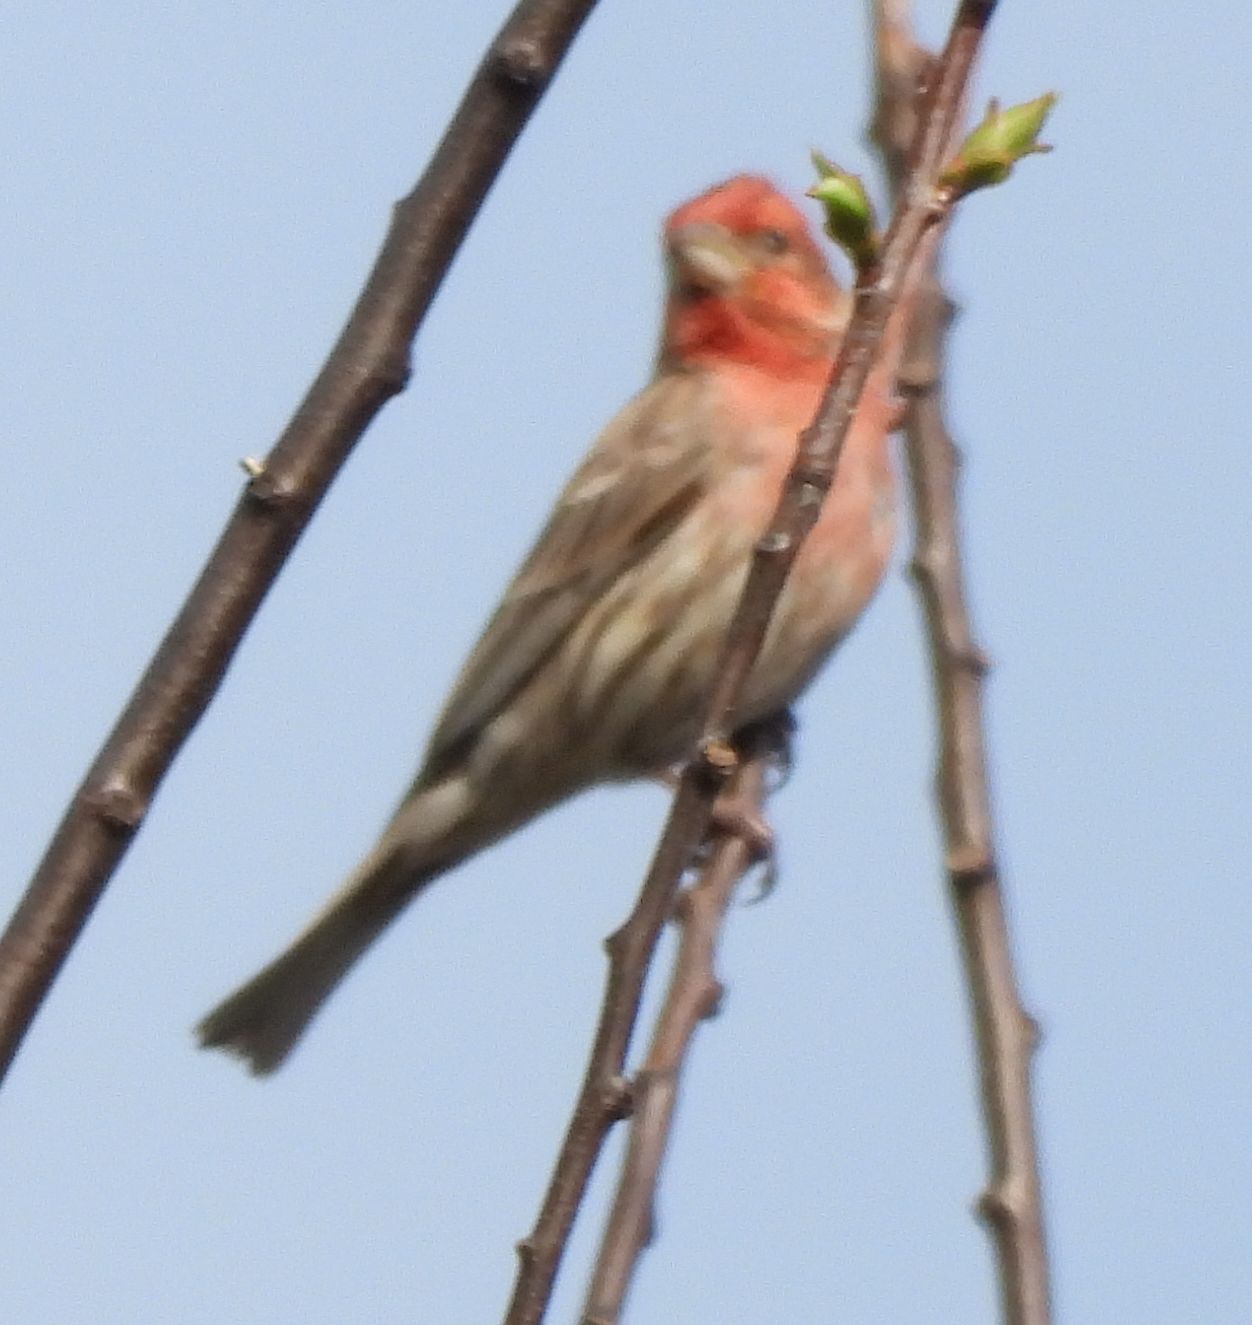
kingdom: Animalia
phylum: Chordata
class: Aves
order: Passeriformes
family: Fringillidae
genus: Haemorhous
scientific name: Haemorhous mexicanus
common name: House finch
